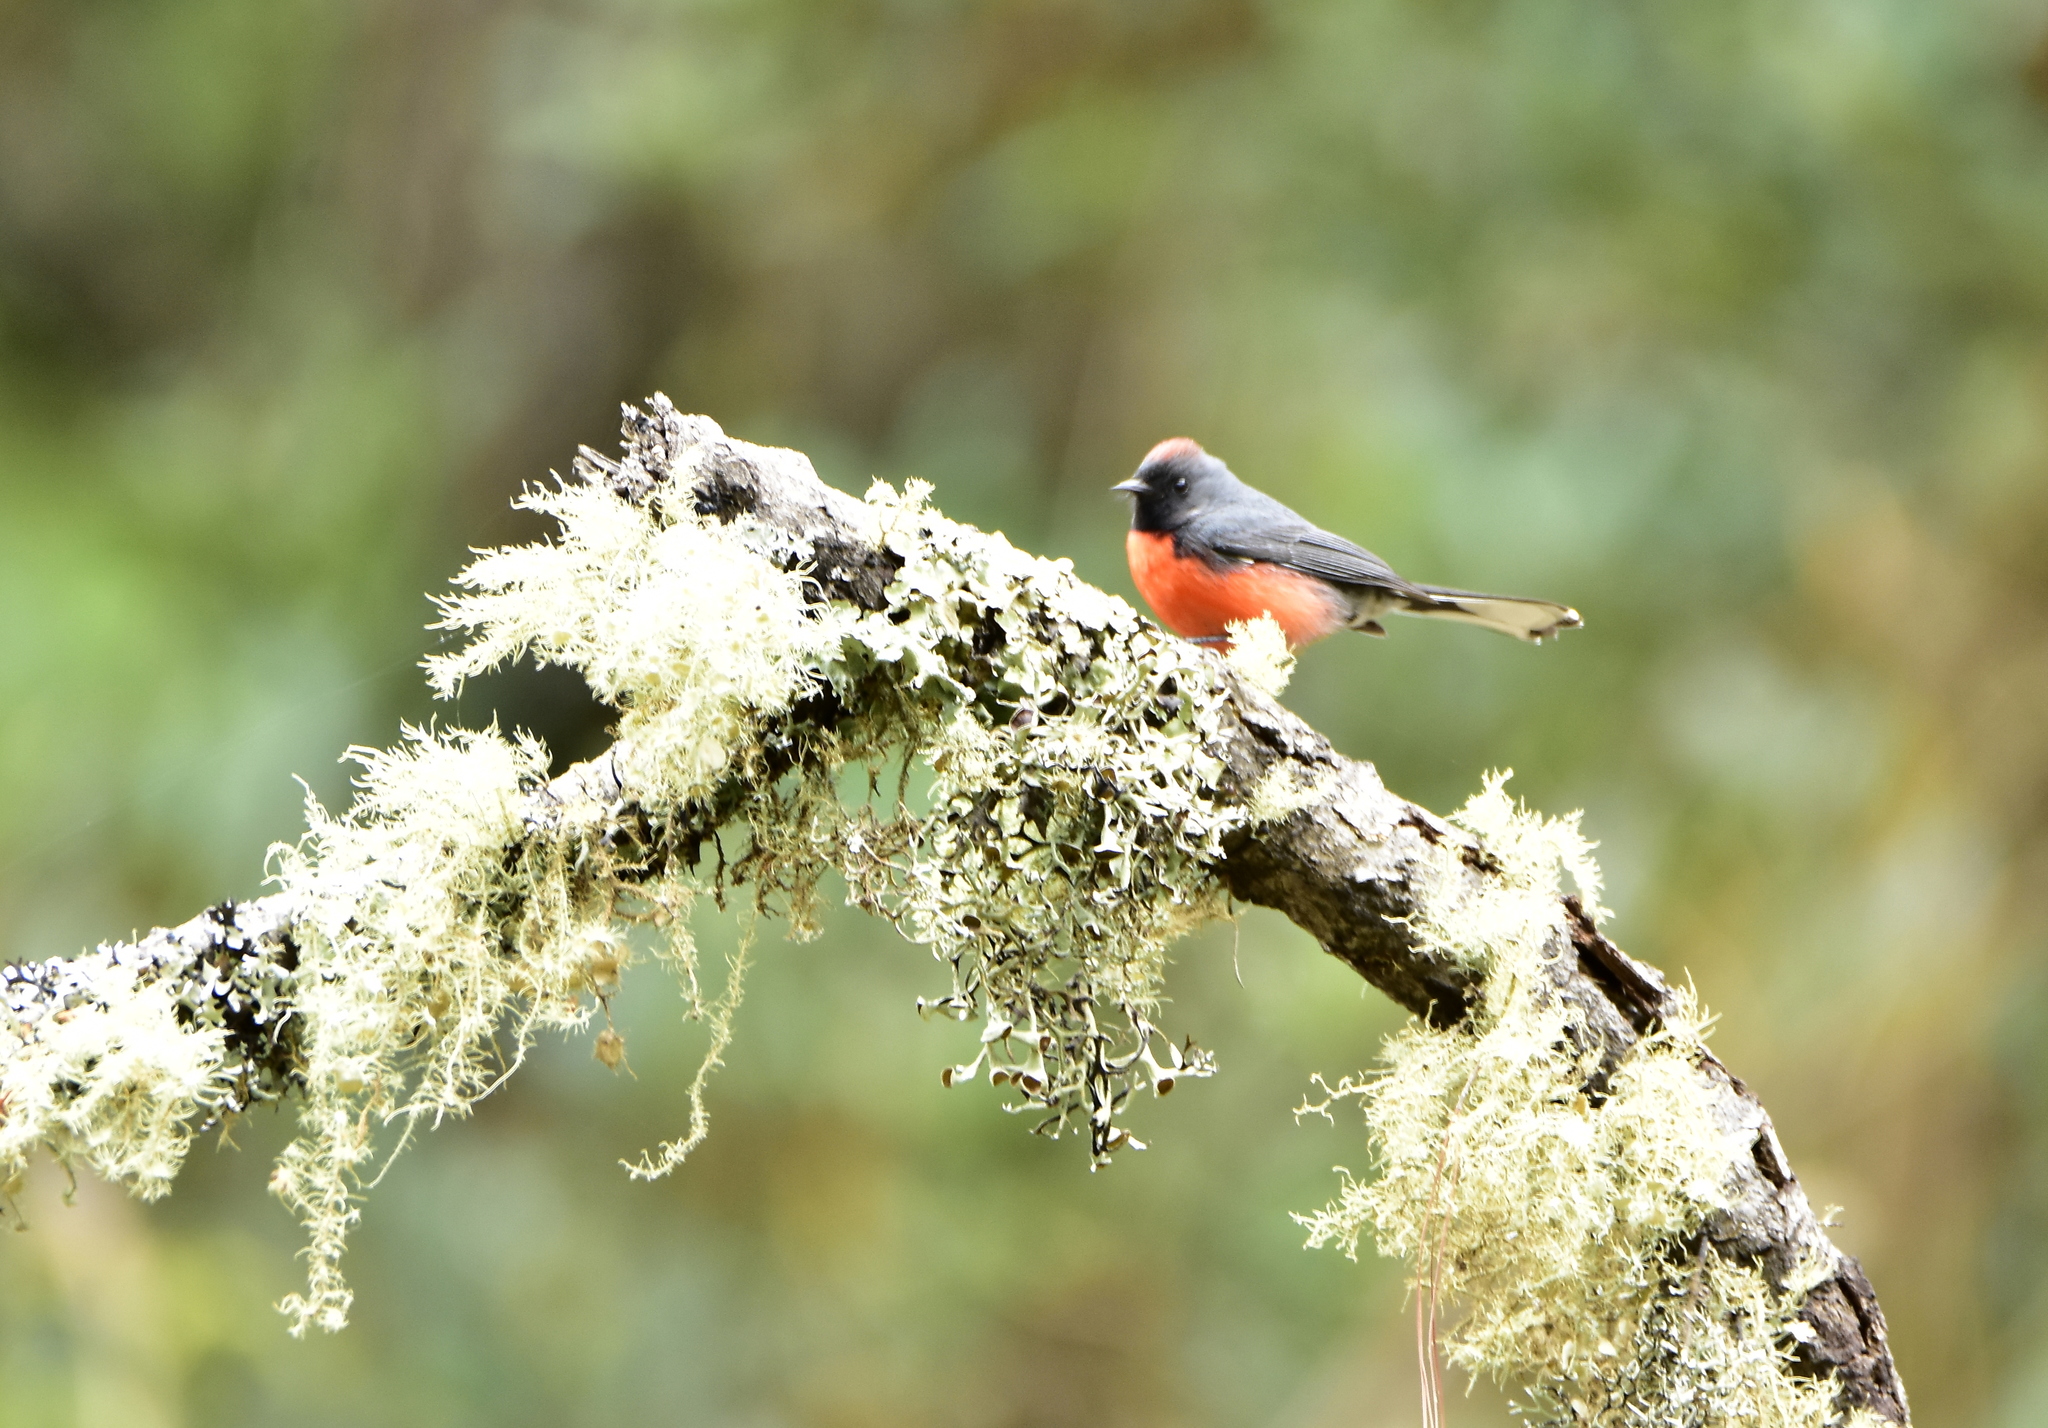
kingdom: Animalia
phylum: Chordata
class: Aves
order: Passeriformes
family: Parulidae
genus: Myioborus
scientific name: Myioborus miniatus
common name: Slate-throated redstart
